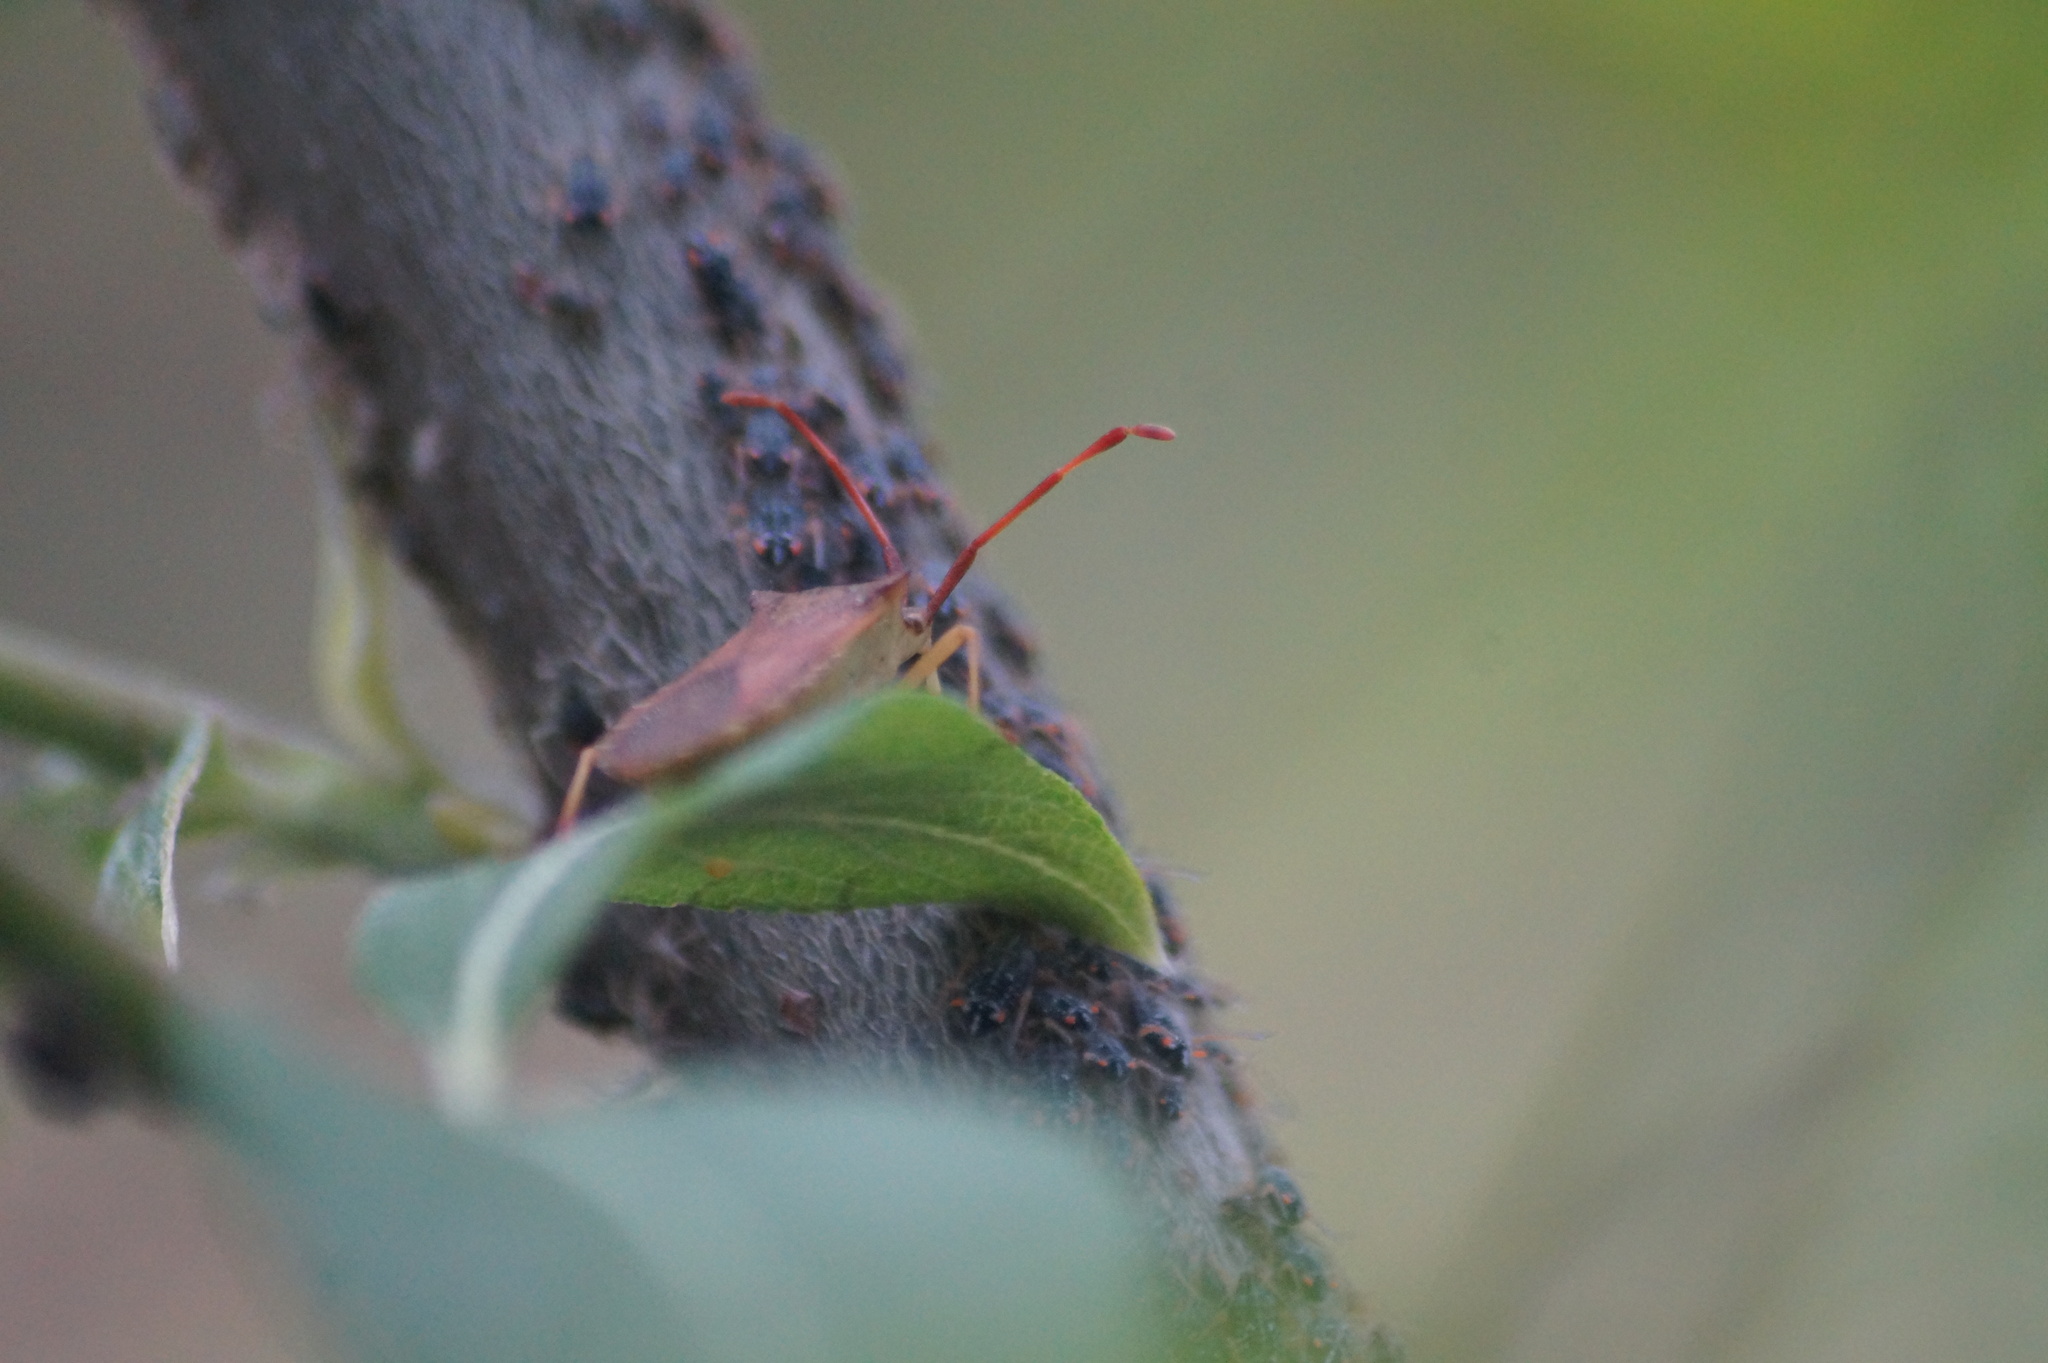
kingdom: Animalia
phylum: Arthropoda
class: Insecta
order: Hemiptera
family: Coreidae
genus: Gonocerus
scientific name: Gonocerus acuteangulatus
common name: Box bug
